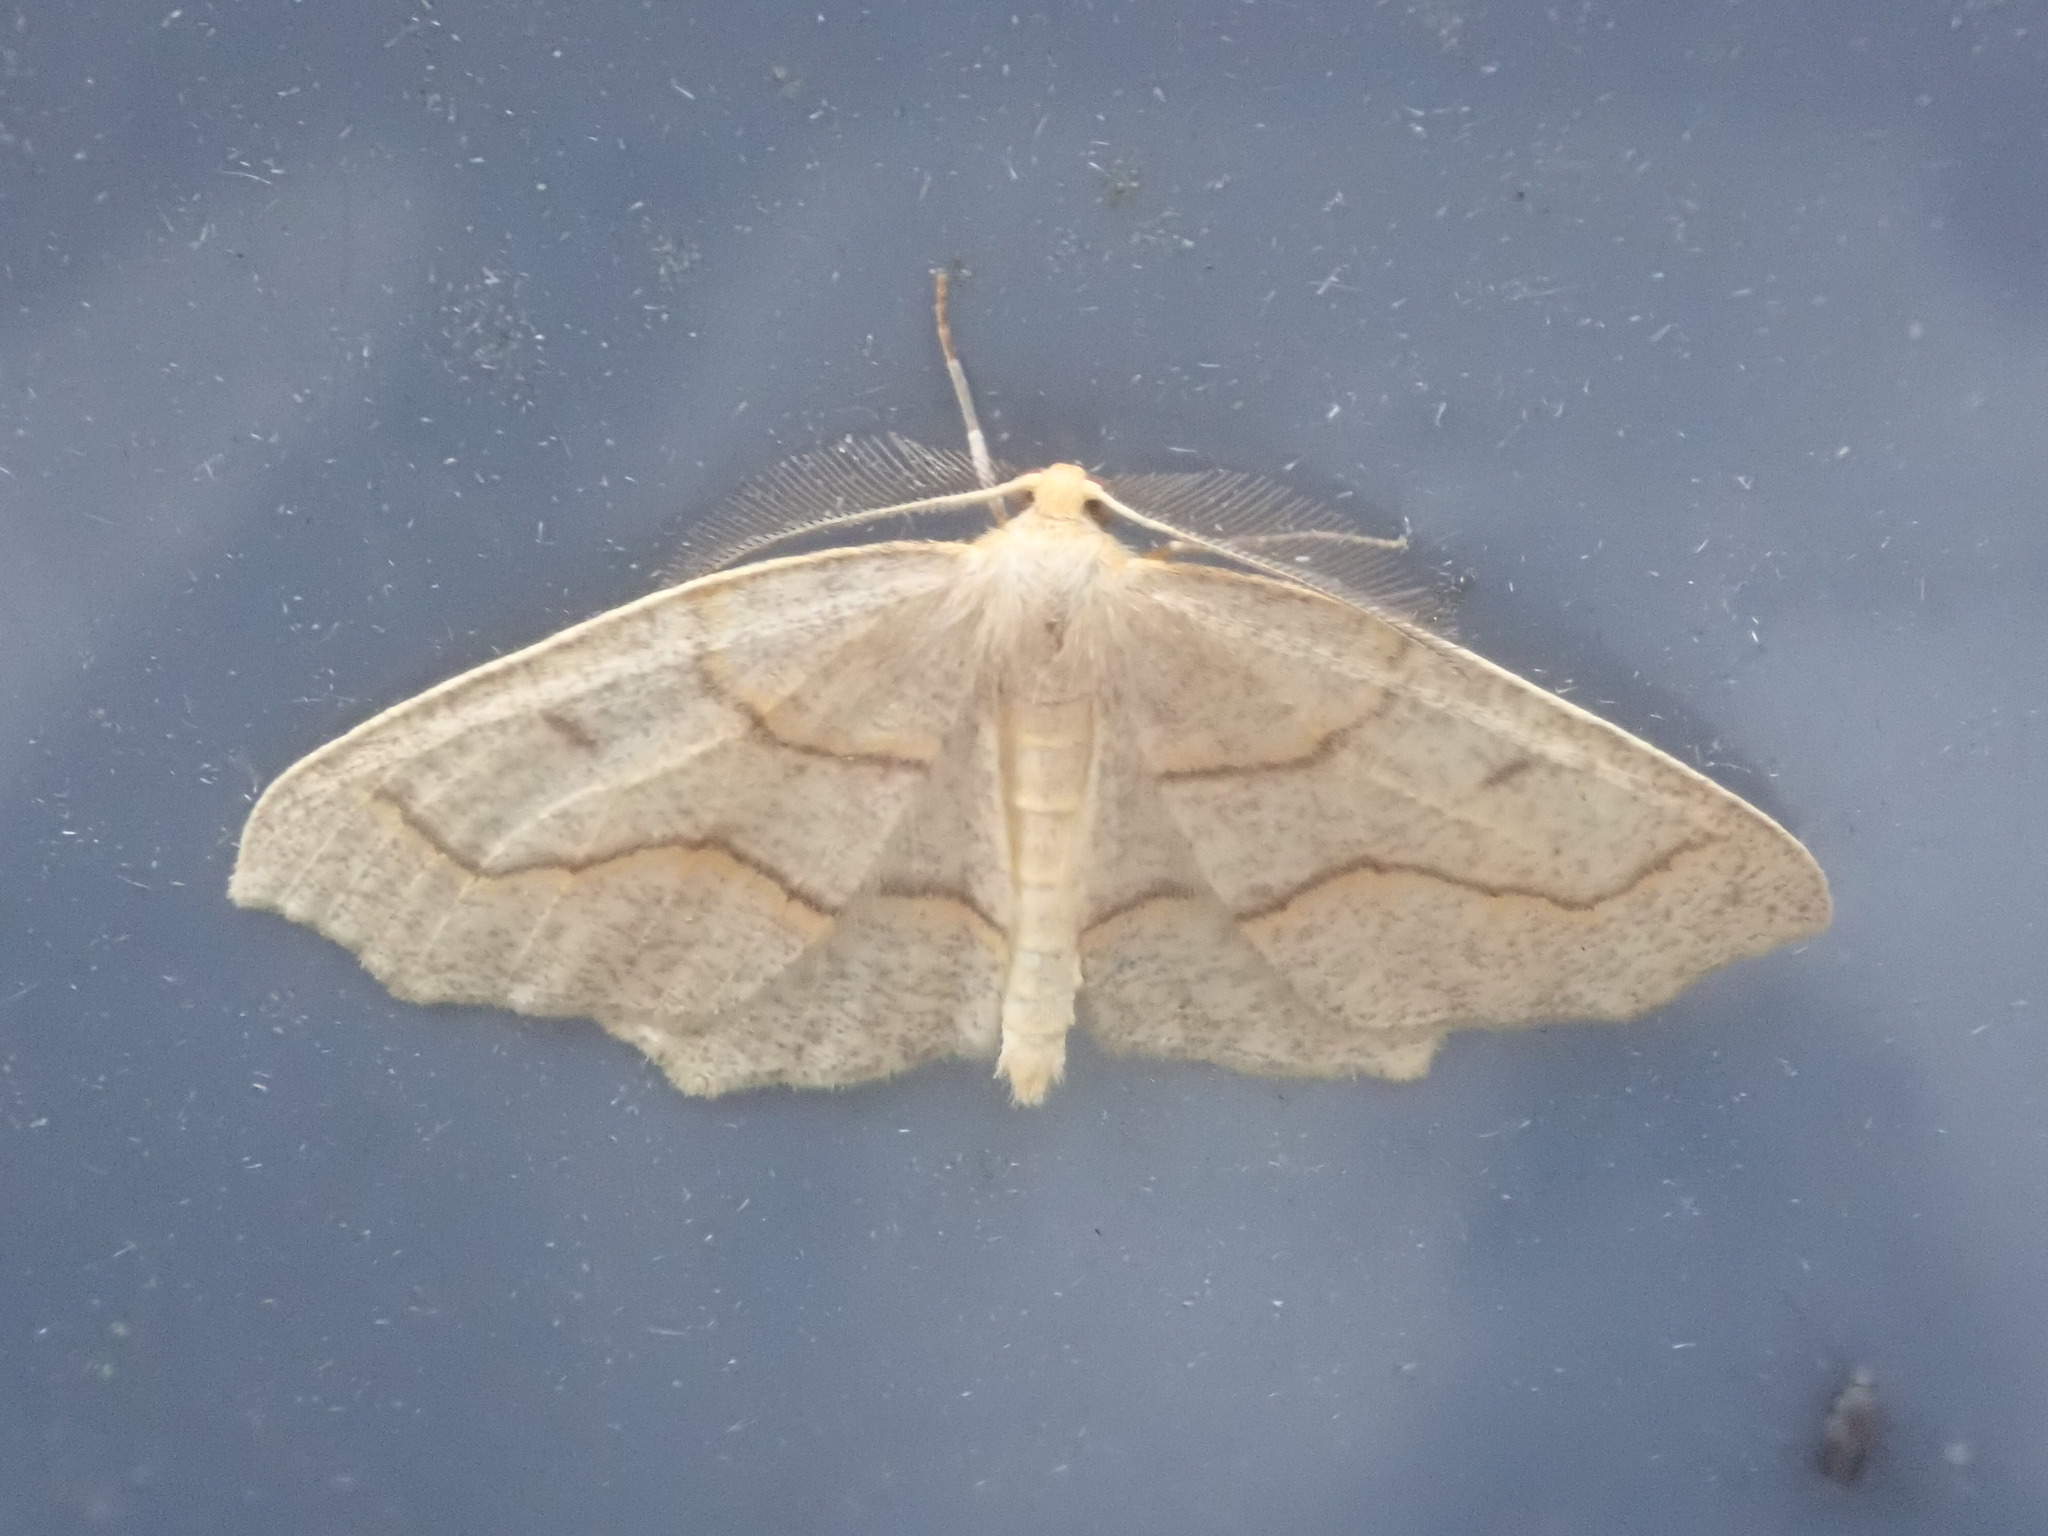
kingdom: Animalia
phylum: Arthropoda
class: Insecta
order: Lepidoptera
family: Geometridae
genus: Lambdina
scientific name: Lambdina fiscellaria
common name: Hemlock looper
